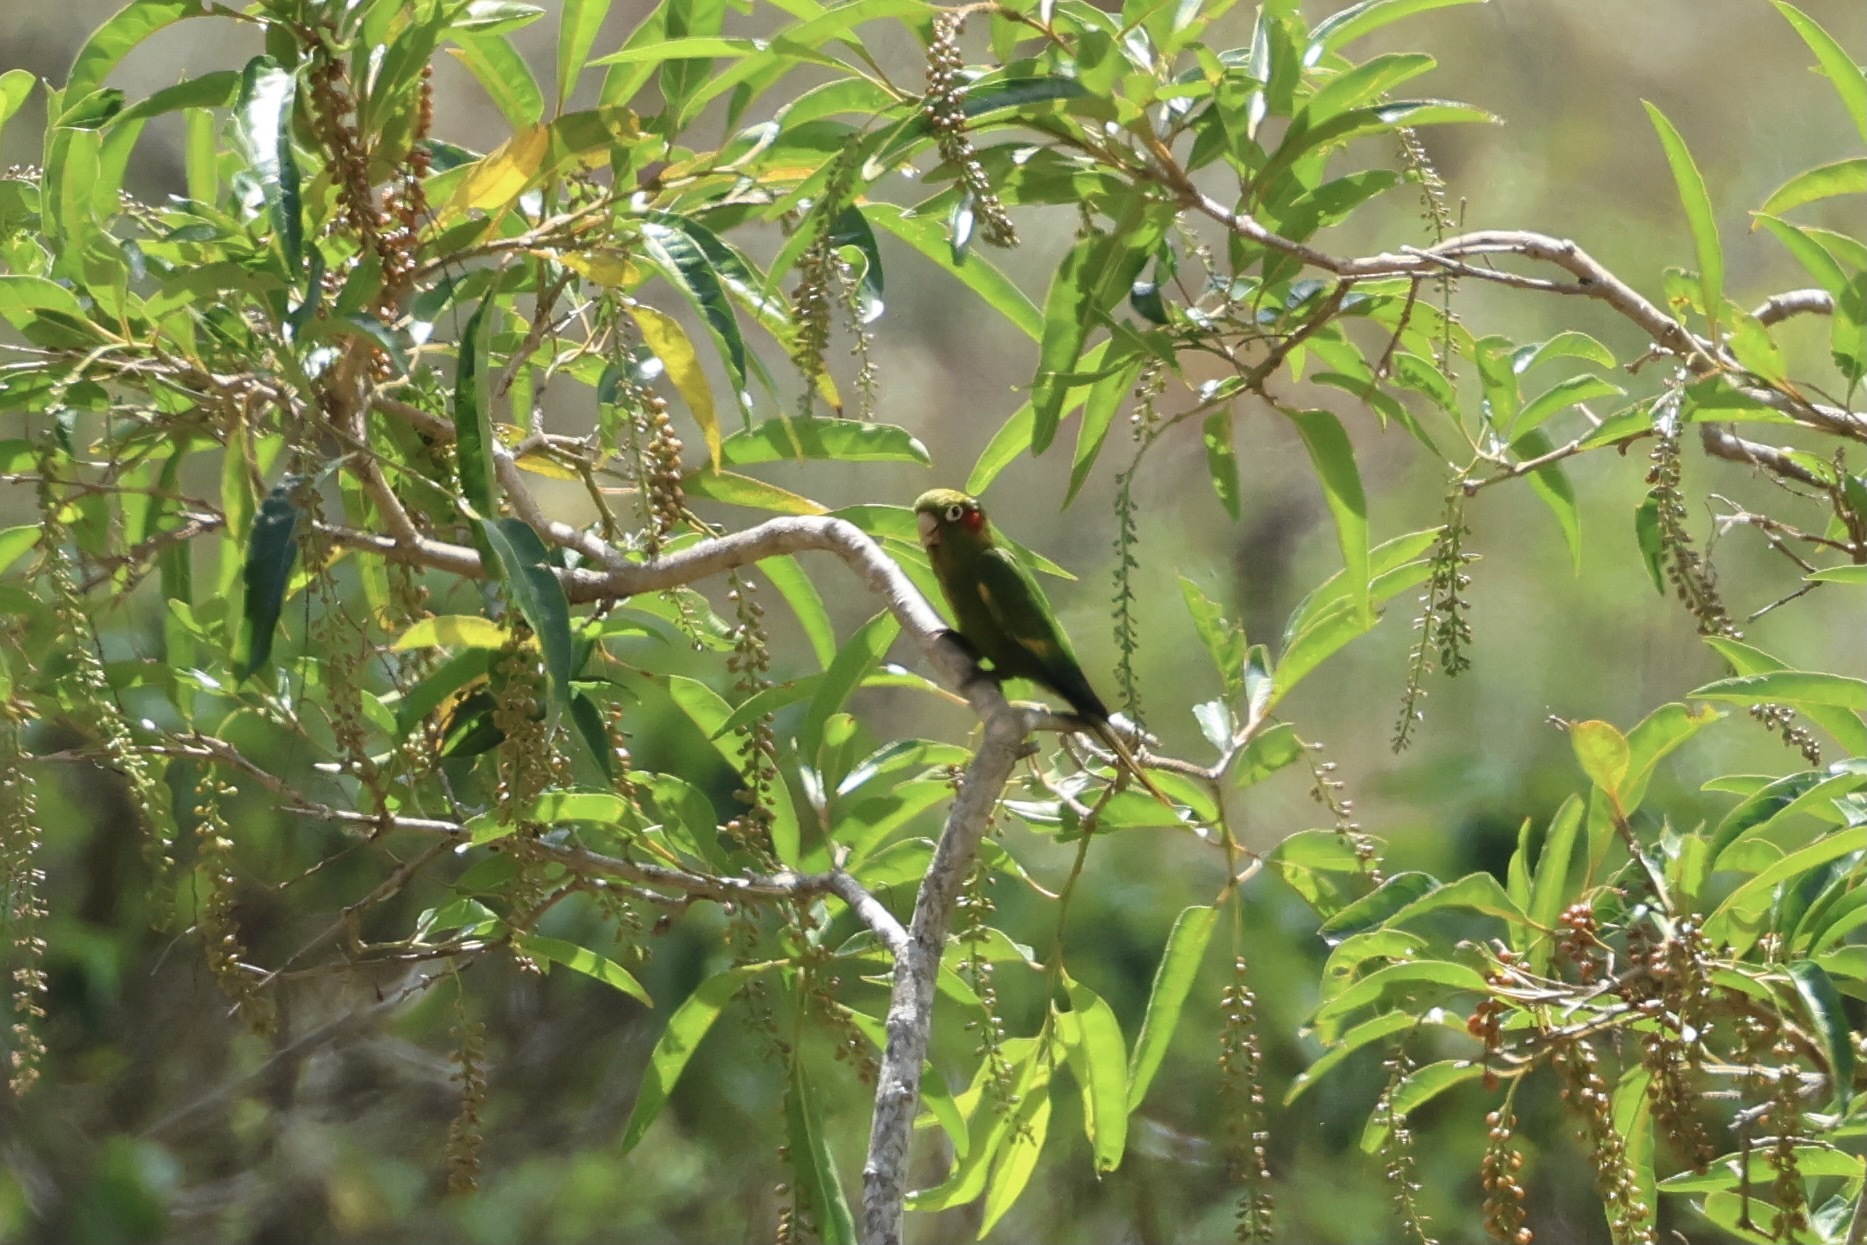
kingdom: Animalia
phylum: Chordata
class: Aves
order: Psittaciformes
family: Psittacidae
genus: Pyrrhura
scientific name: Pyrrhura hoffmanni
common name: Sulphur-winged parakeet
